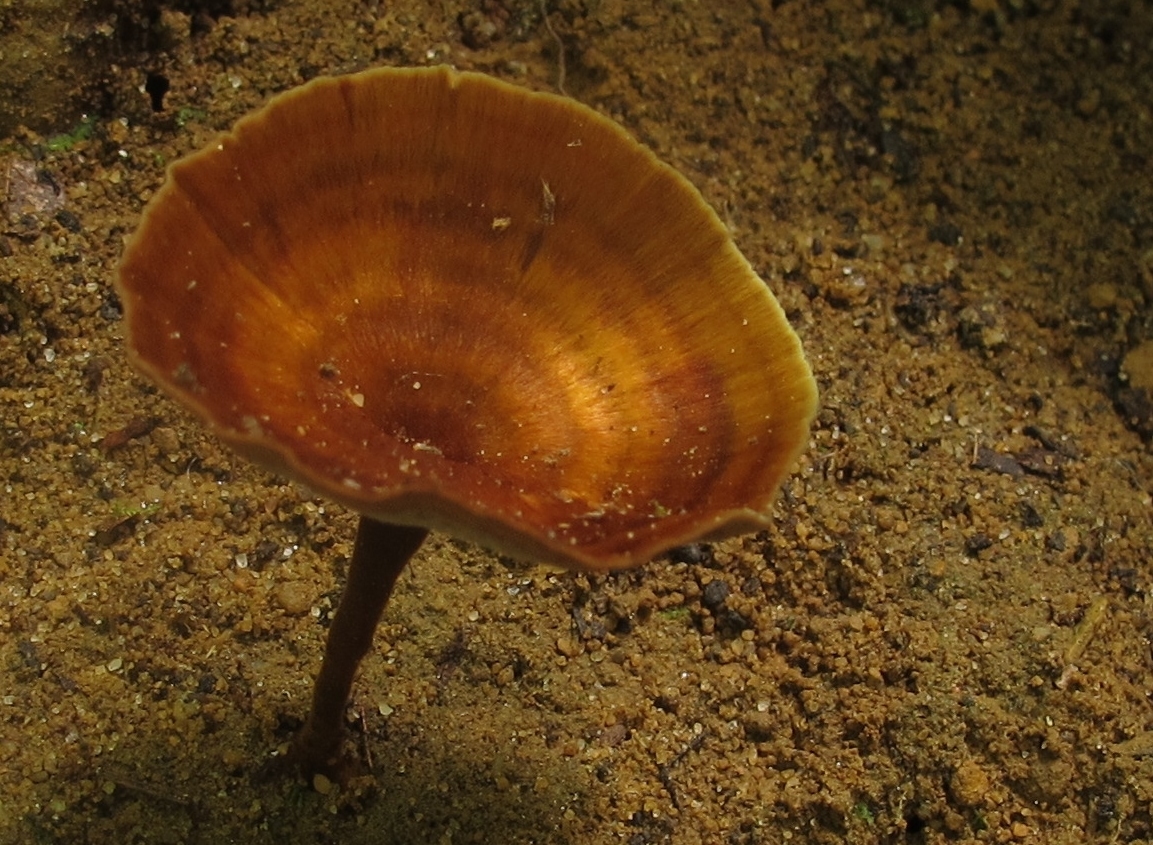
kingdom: Fungi
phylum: Basidiomycota
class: Agaricomycetes
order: Hymenochaetales
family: Hymenochaetaceae
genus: Coltricia
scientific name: Coltricia cinnamomea
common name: Shiny cinnamon polypore
